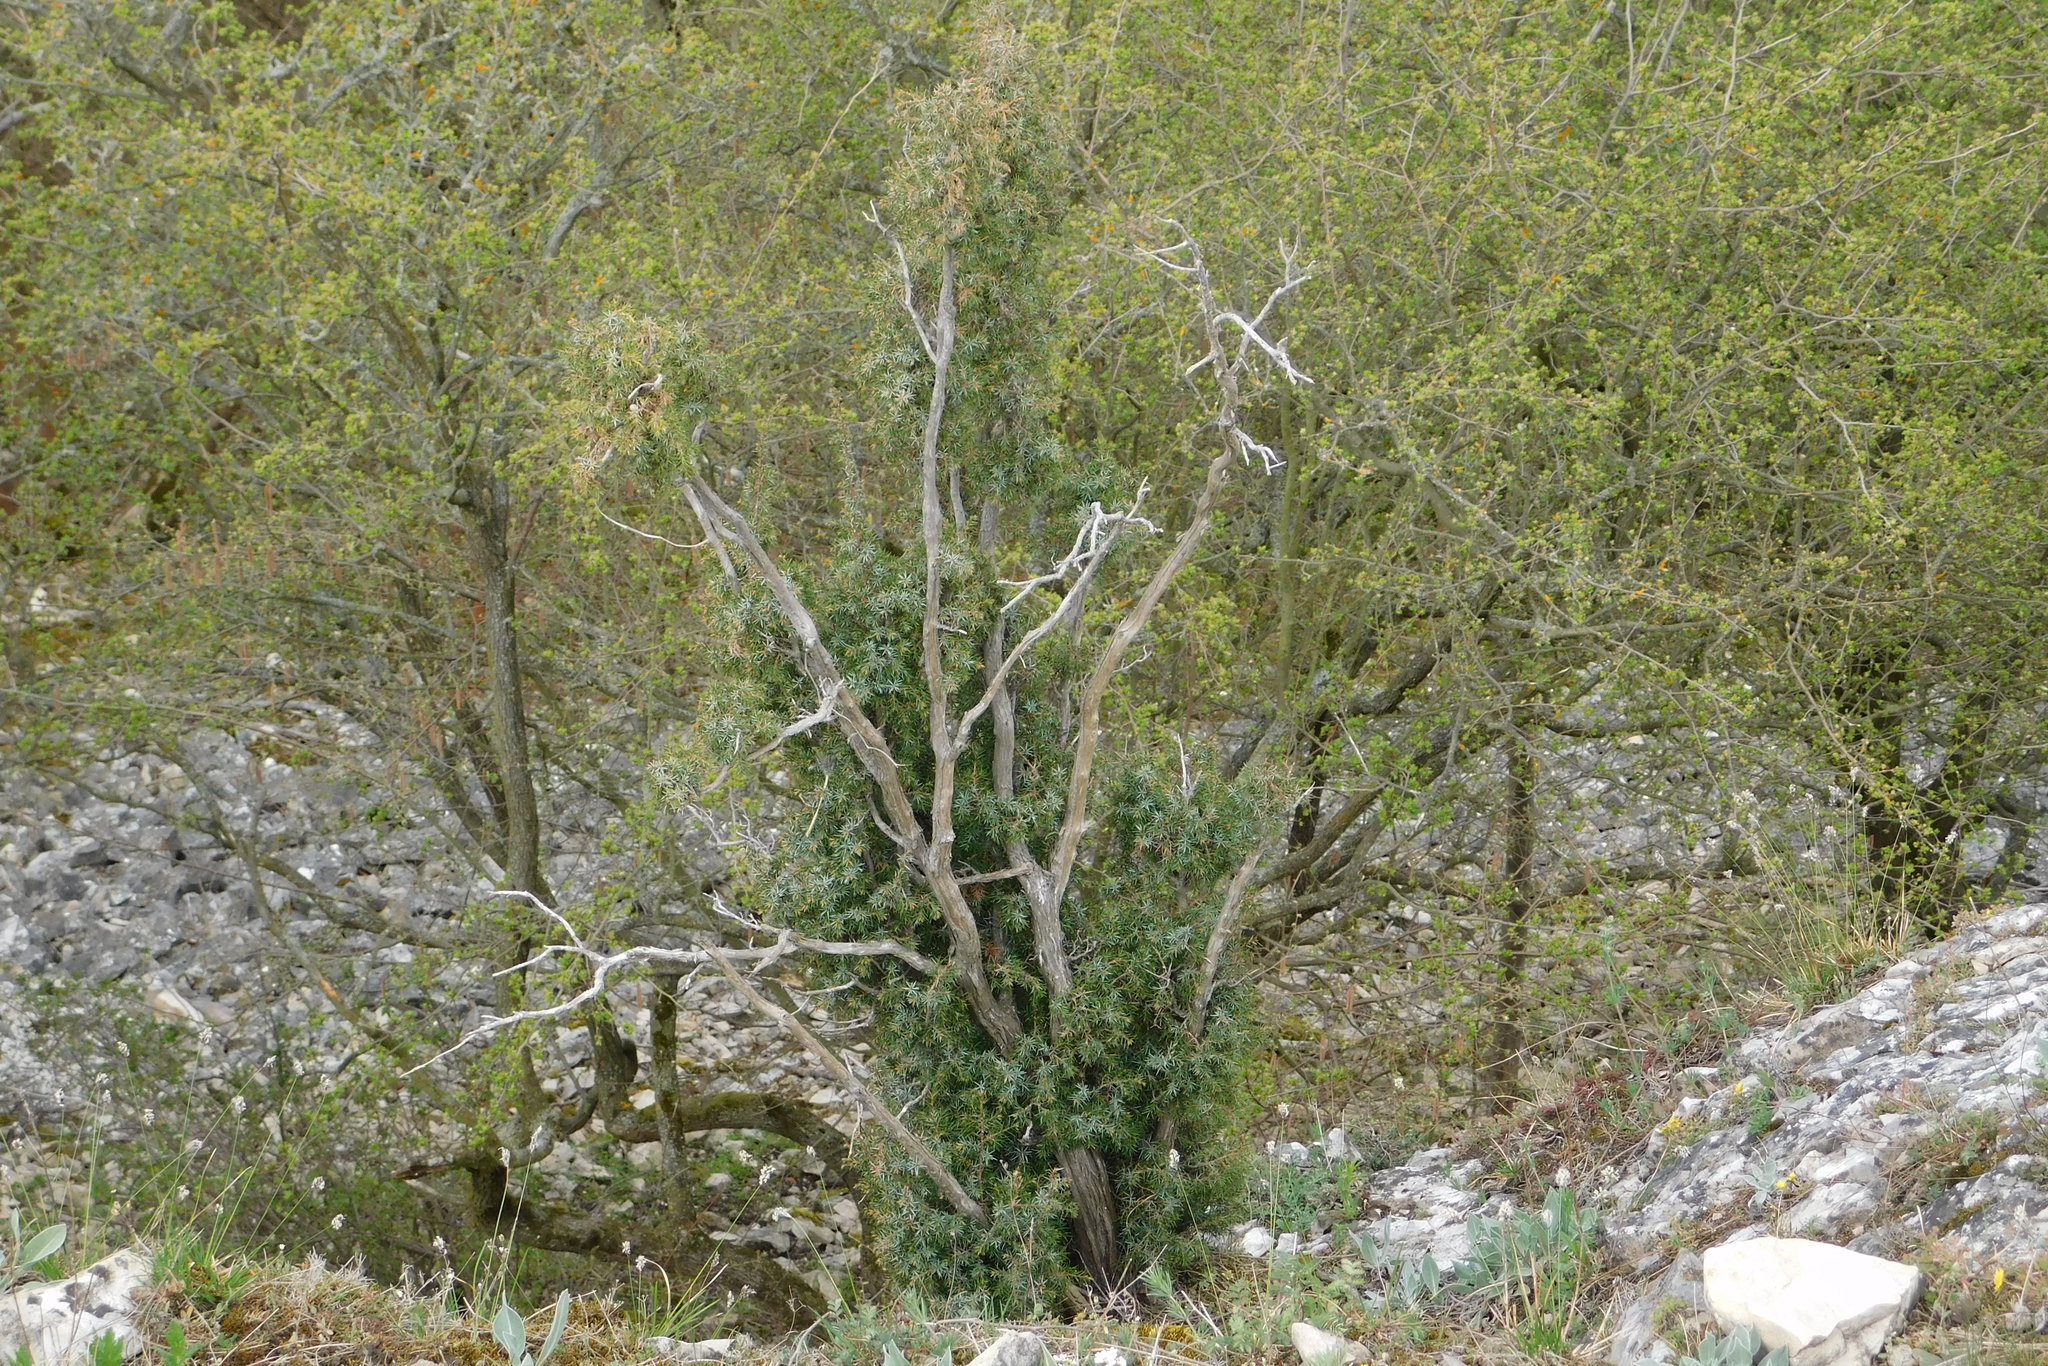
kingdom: Plantae
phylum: Tracheophyta
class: Pinopsida
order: Pinales
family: Cupressaceae
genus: Juniperus
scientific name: Juniperus communis
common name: Common juniper
